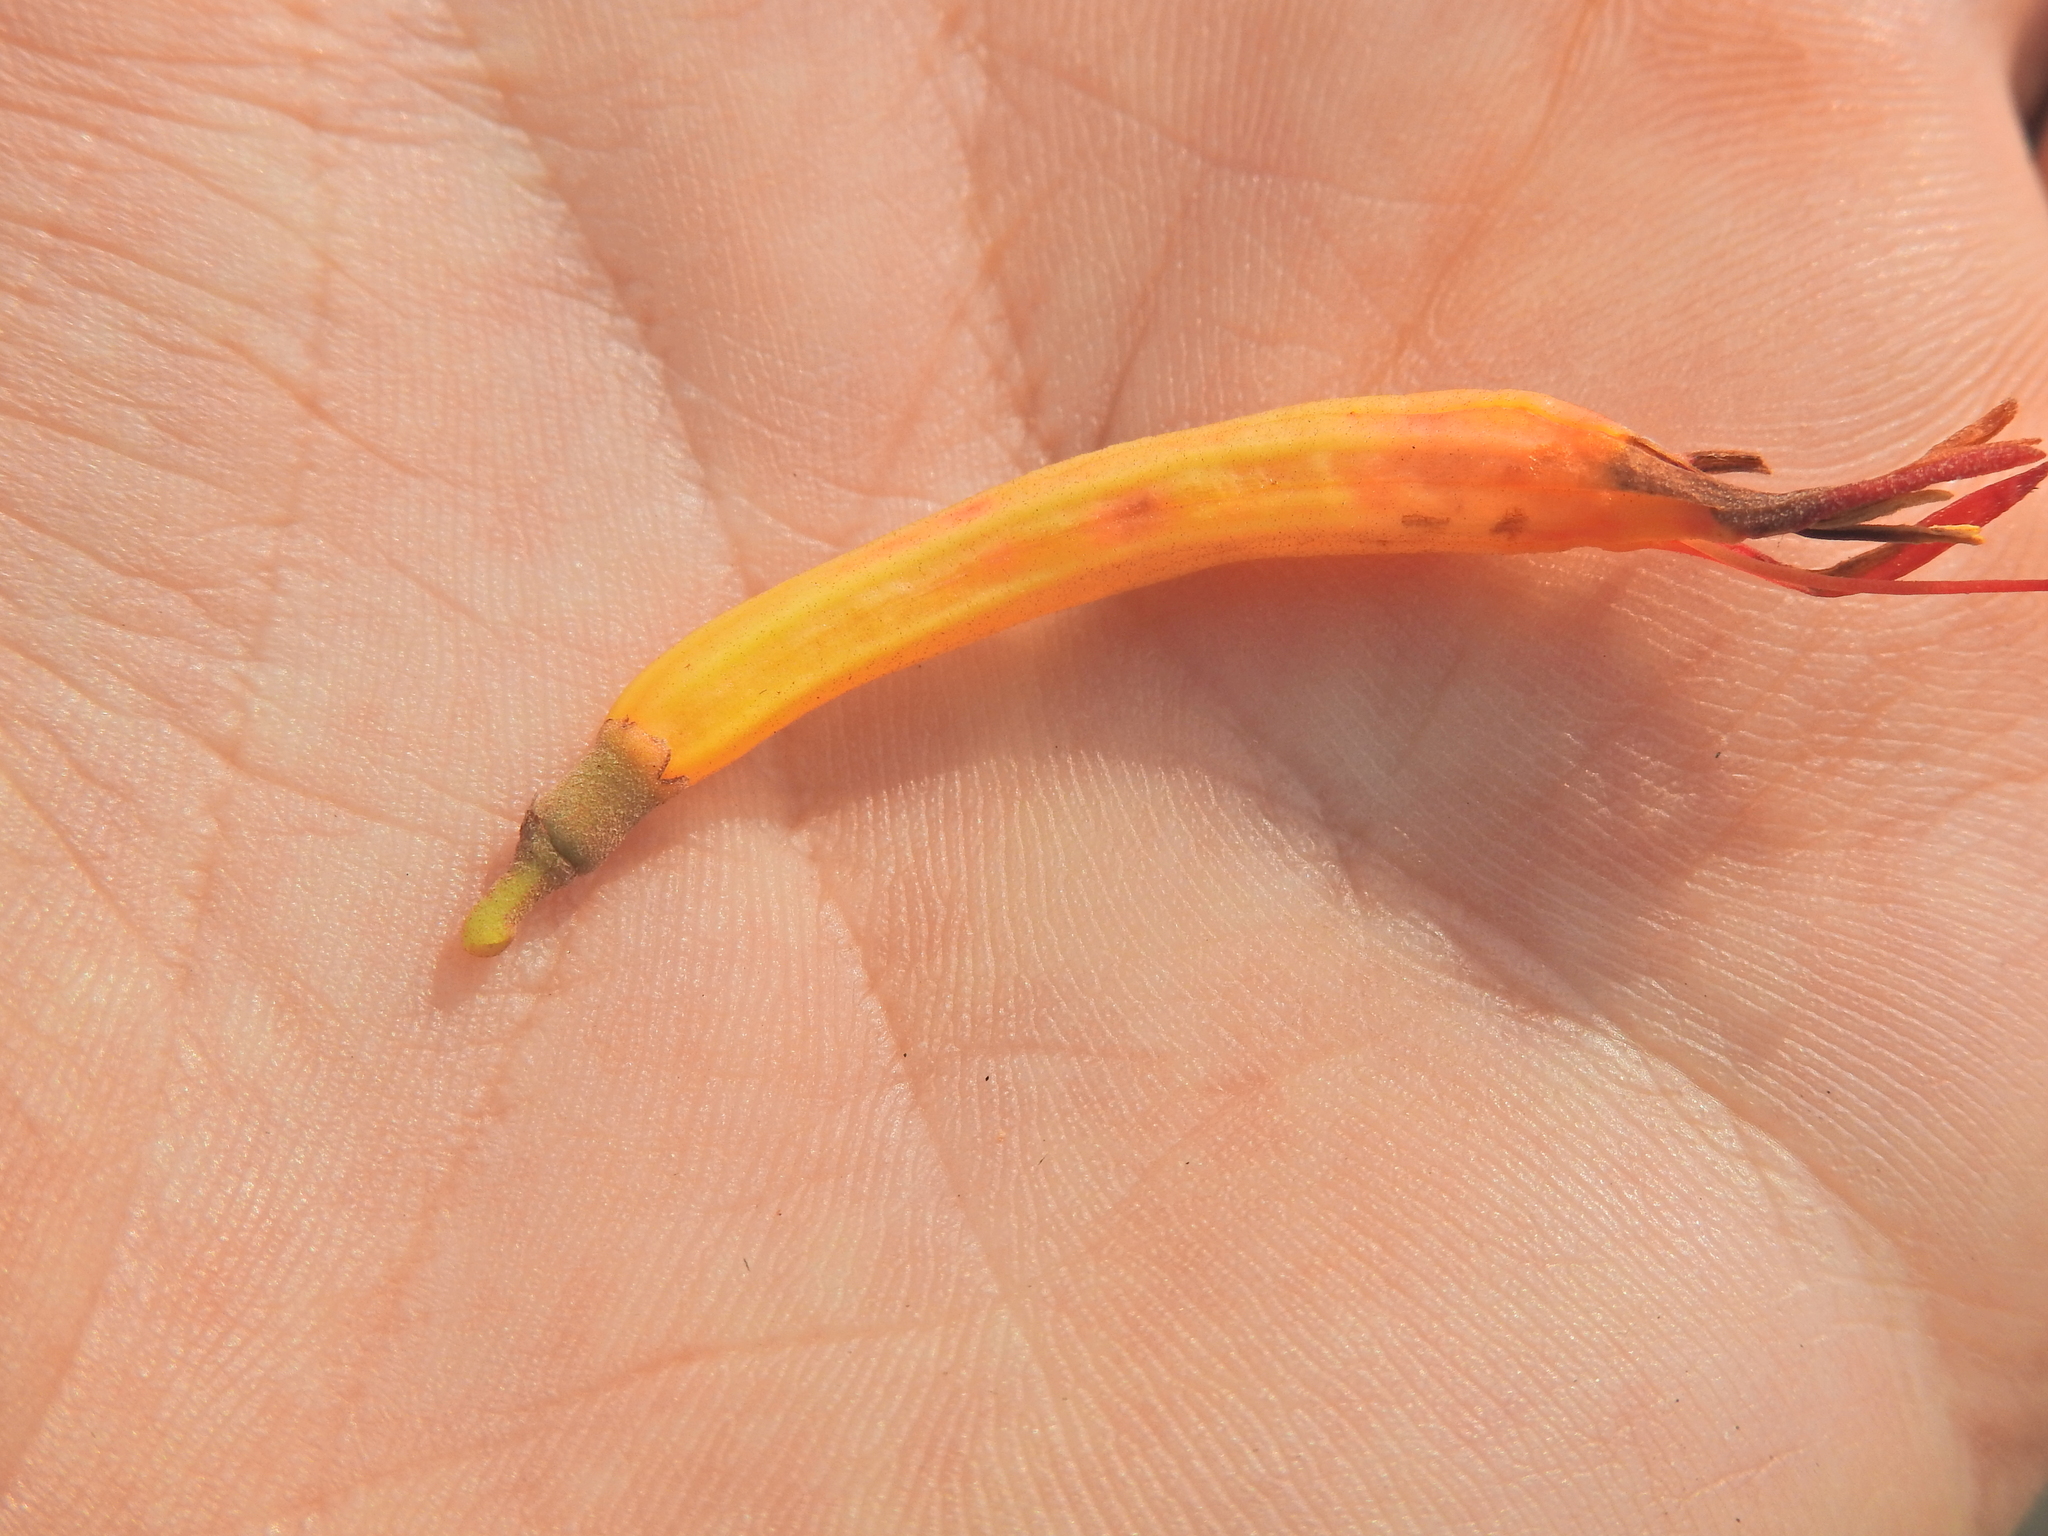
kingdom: Plantae
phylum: Tracheophyta
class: Magnoliopsida
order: Santalales
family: Loranthaceae
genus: Dendrophthoe
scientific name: Dendrophthoe vitellina
